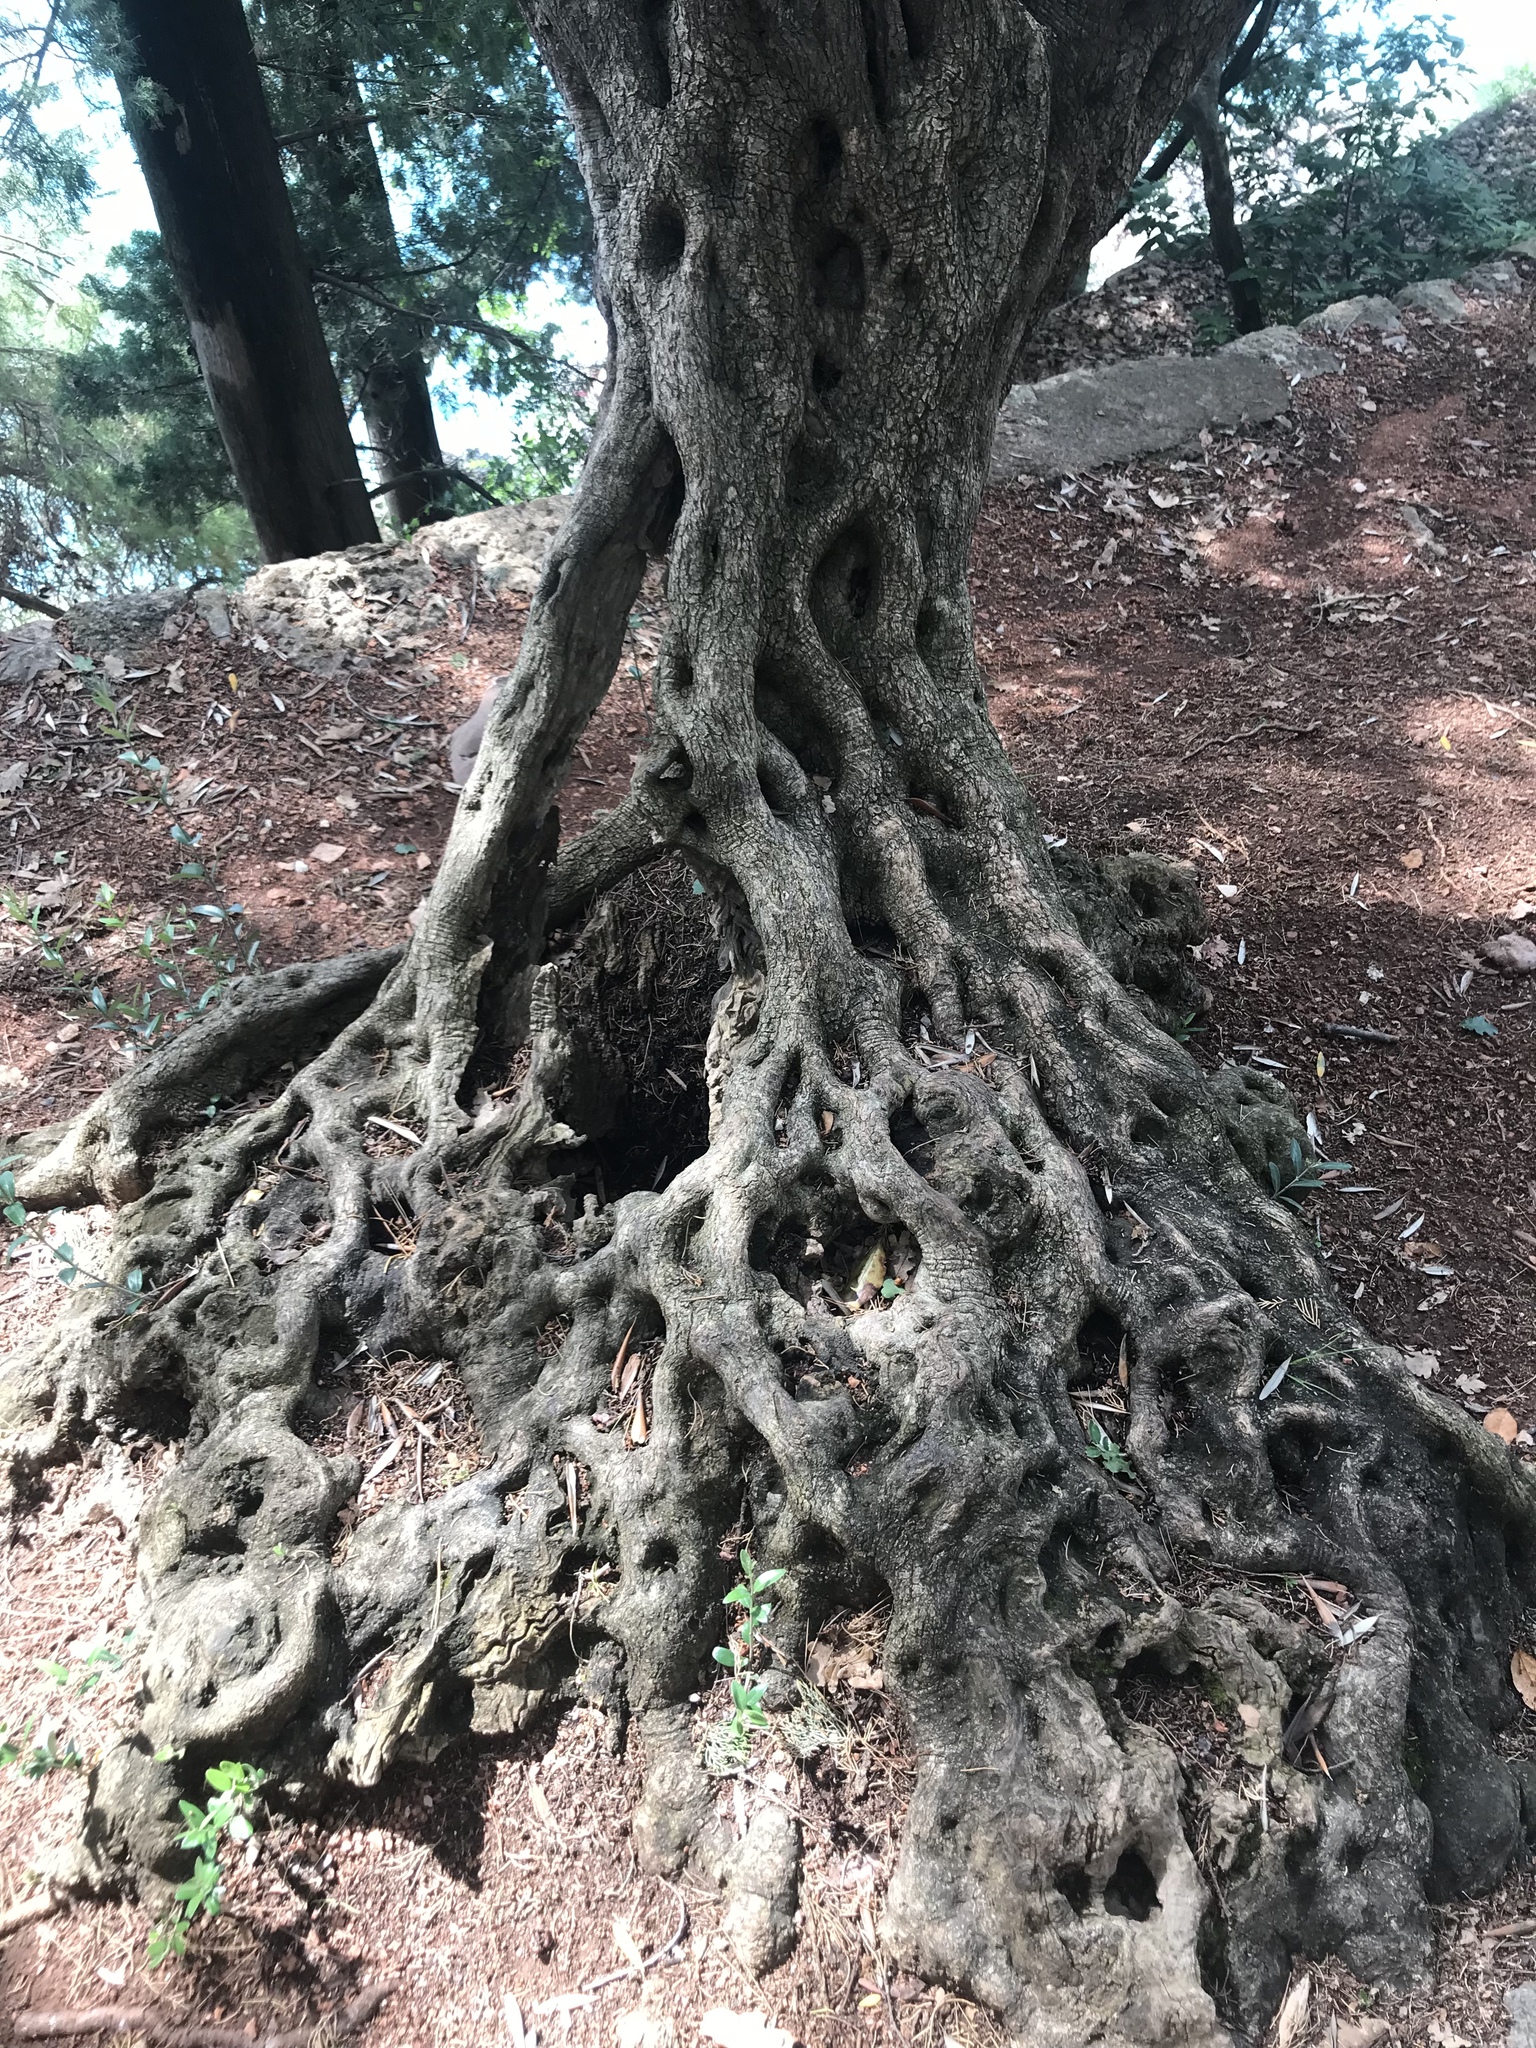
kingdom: Plantae
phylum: Tracheophyta
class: Magnoliopsida
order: Lamiales
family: Oleaceae
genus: Olea
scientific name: Olea europaea
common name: Olive
